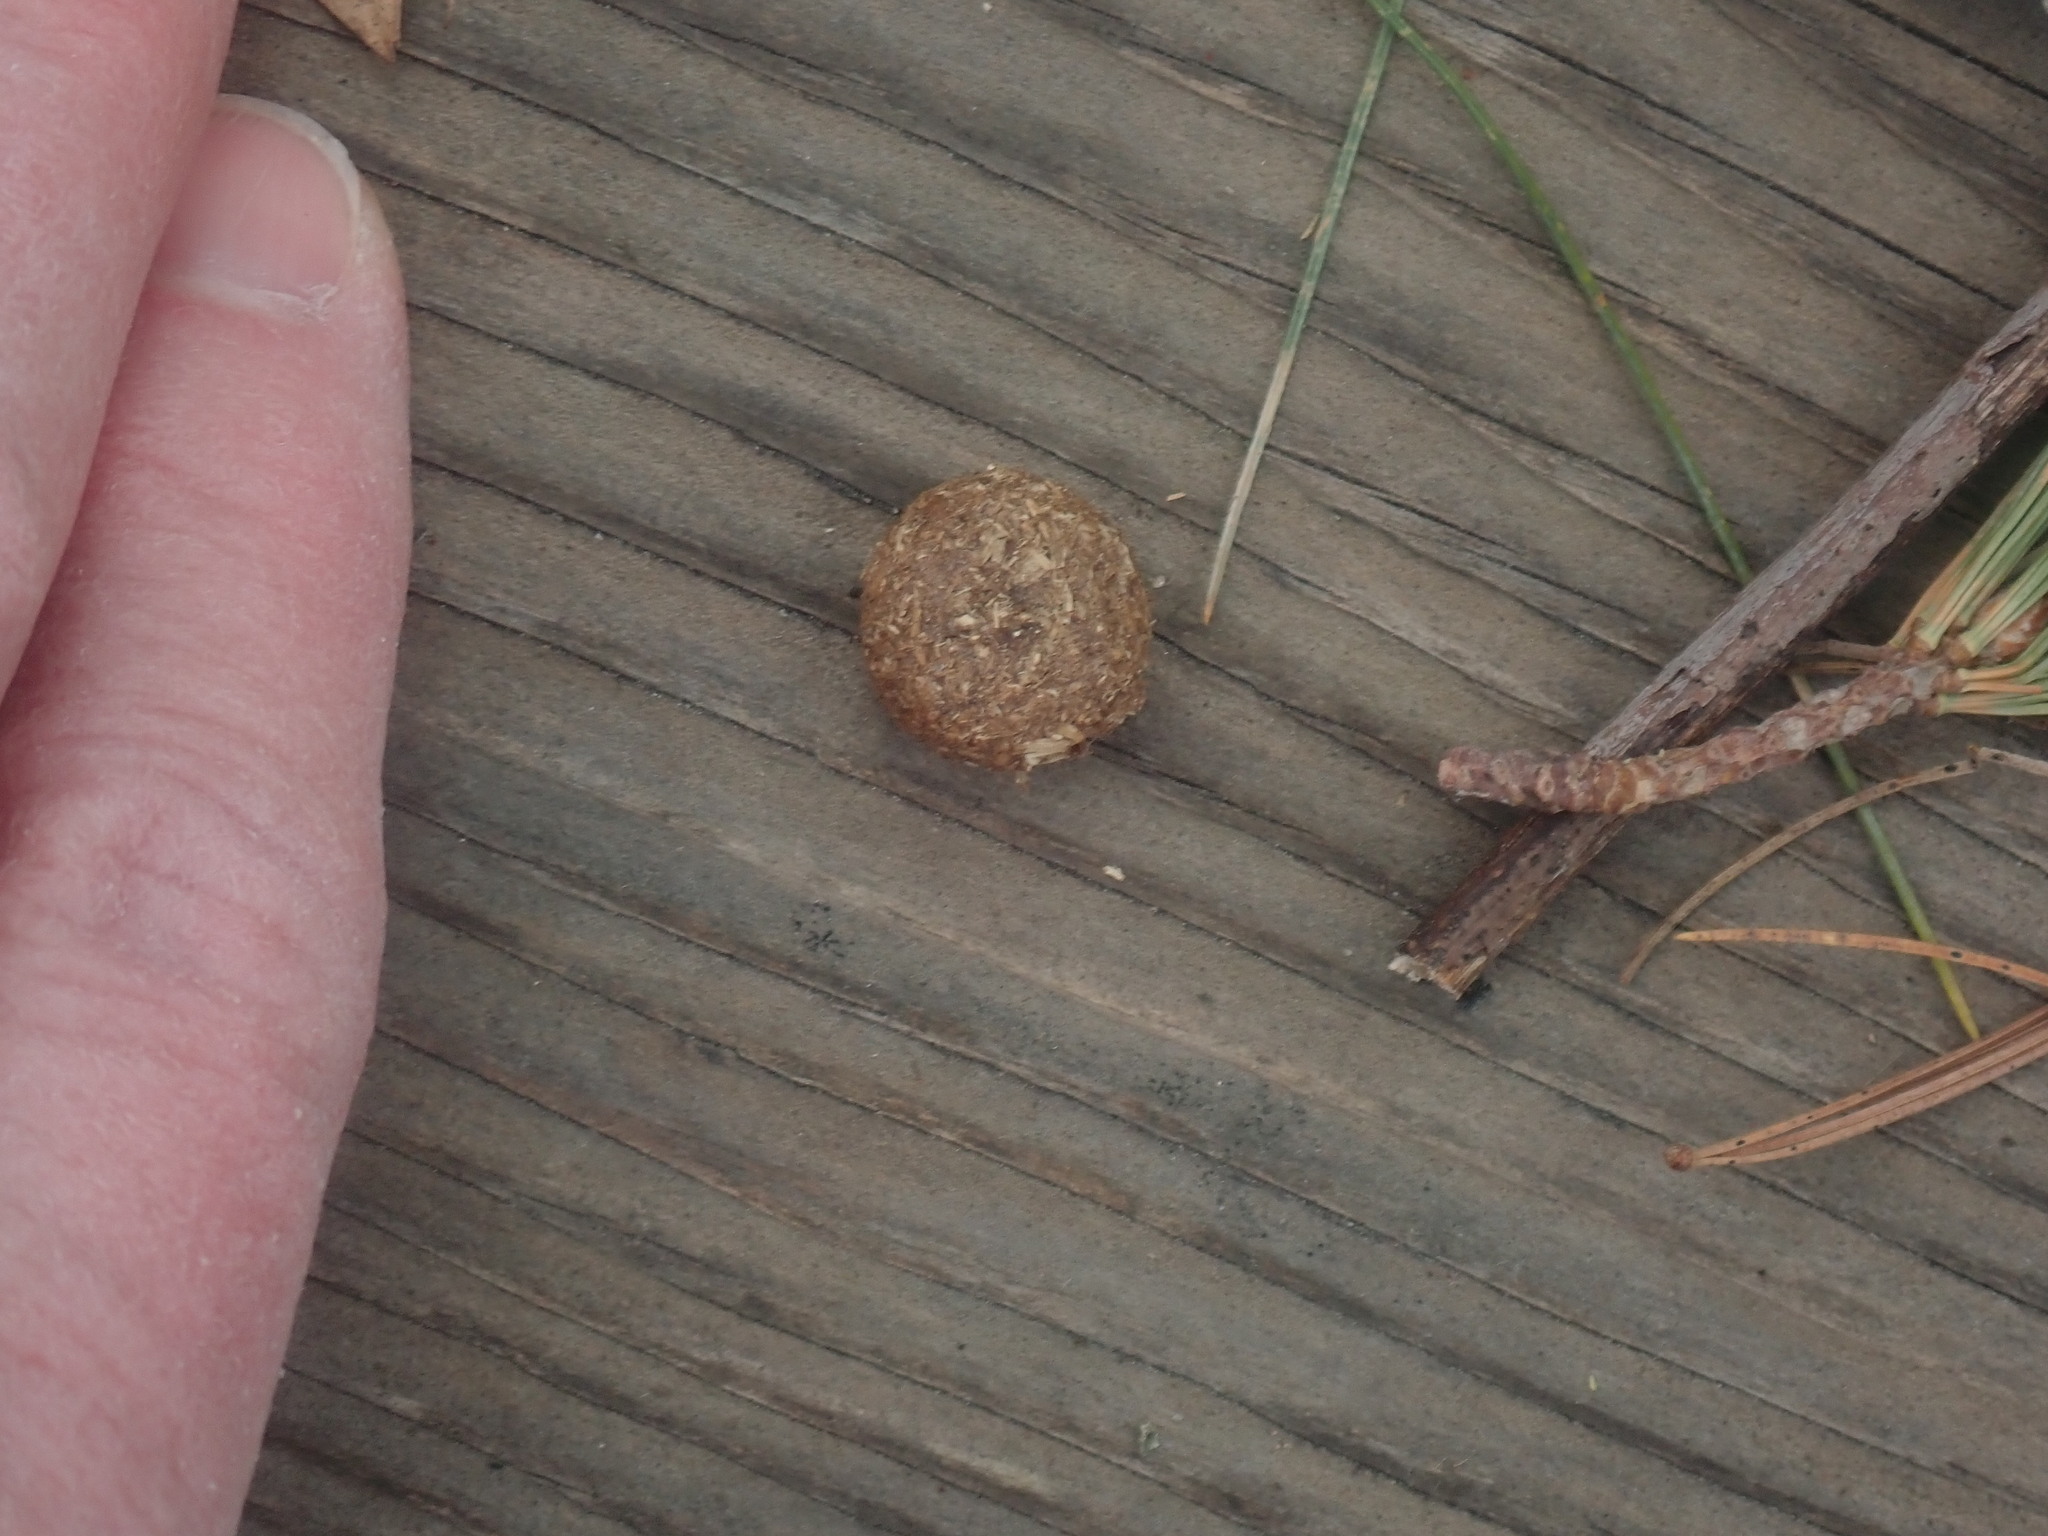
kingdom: Animalia
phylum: Chordata
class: Mammalia
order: Lagomorpha
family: Leporidae
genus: Sylvilagus
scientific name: Sylvilagus floridanus
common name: Eastern cottontail
